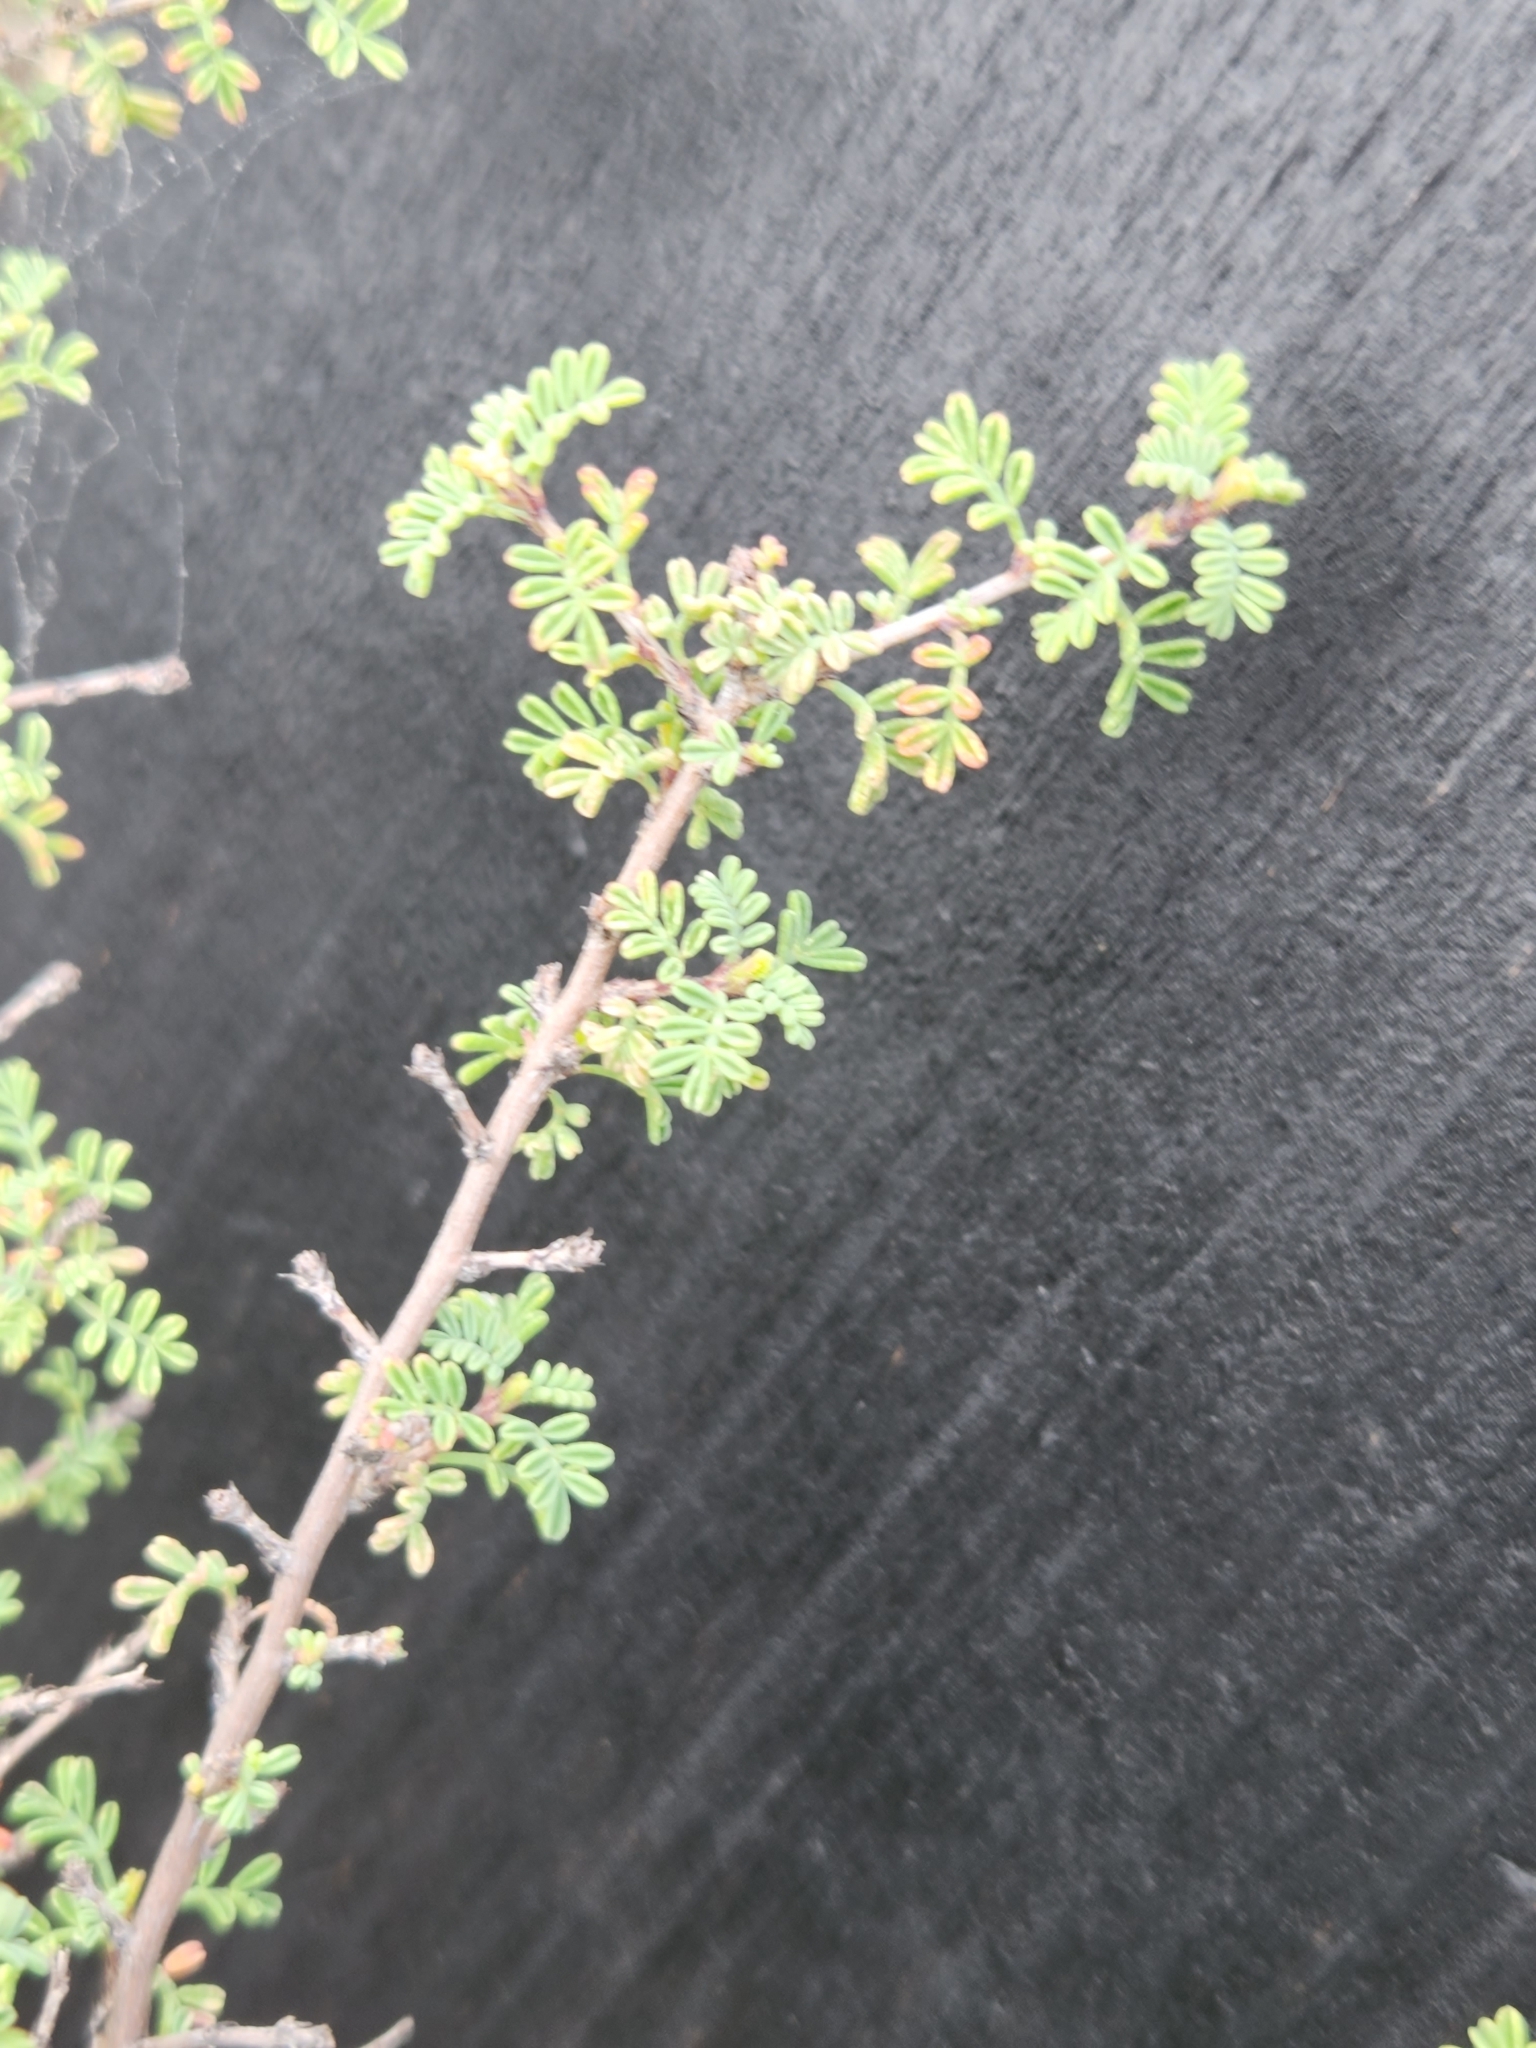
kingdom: Plantae
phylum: Tracheophyta
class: Magnoliopsida
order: Fabales
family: Fabaceae
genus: Dalea
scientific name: Dalea formosa
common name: Feather-plume dalea
